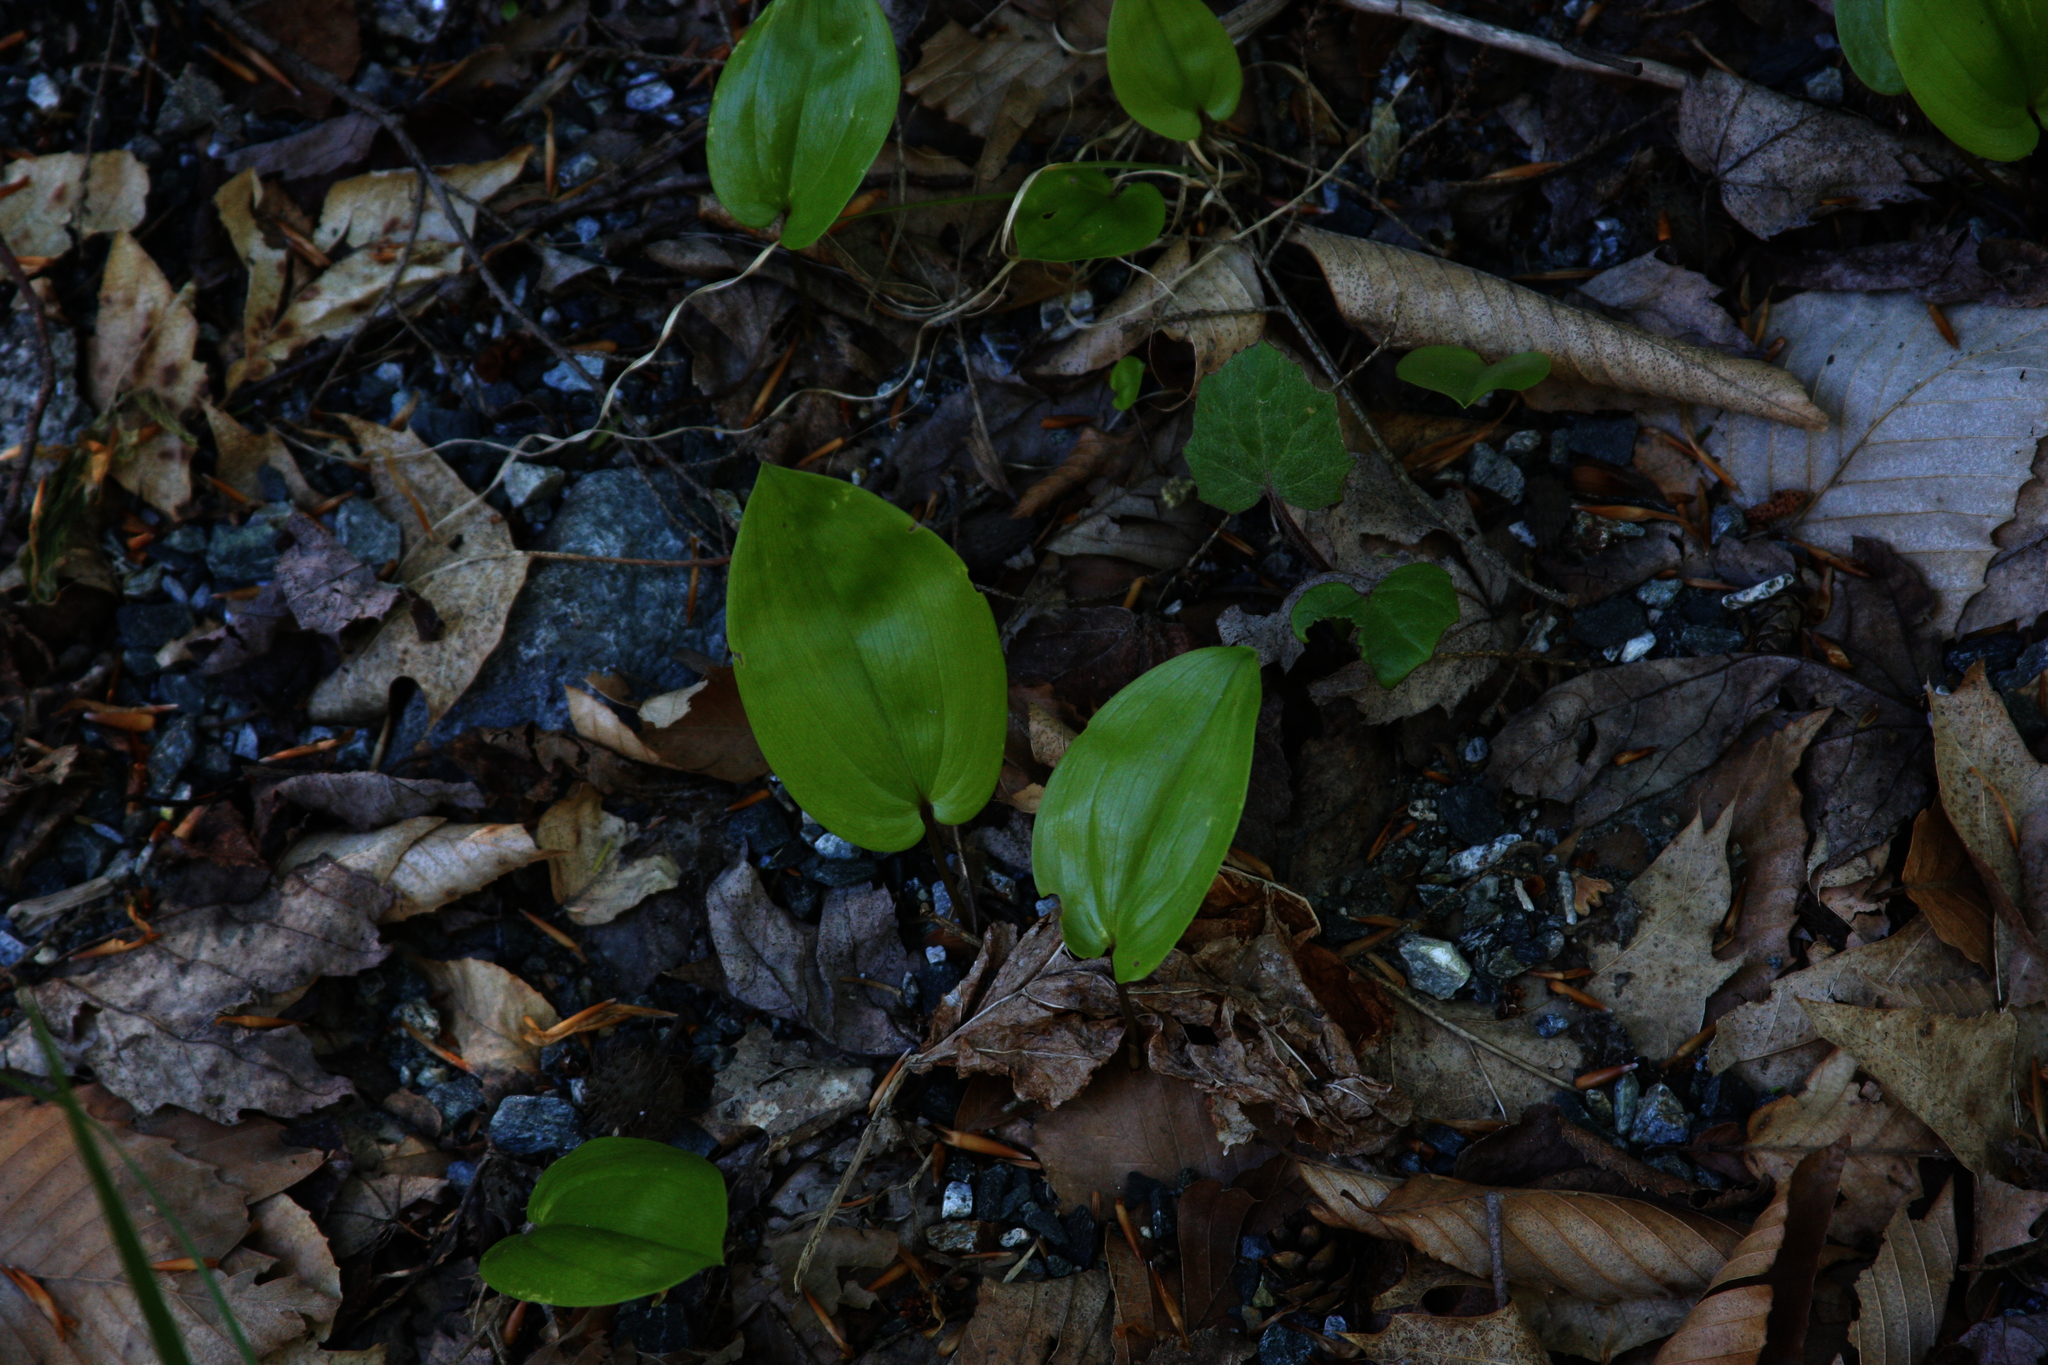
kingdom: Plantae
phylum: Tracheophyta
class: Magnoliopsida
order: Asterales
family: Asteraceae
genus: Tussilago
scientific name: Tussilago farfara
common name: Coltsfoot
